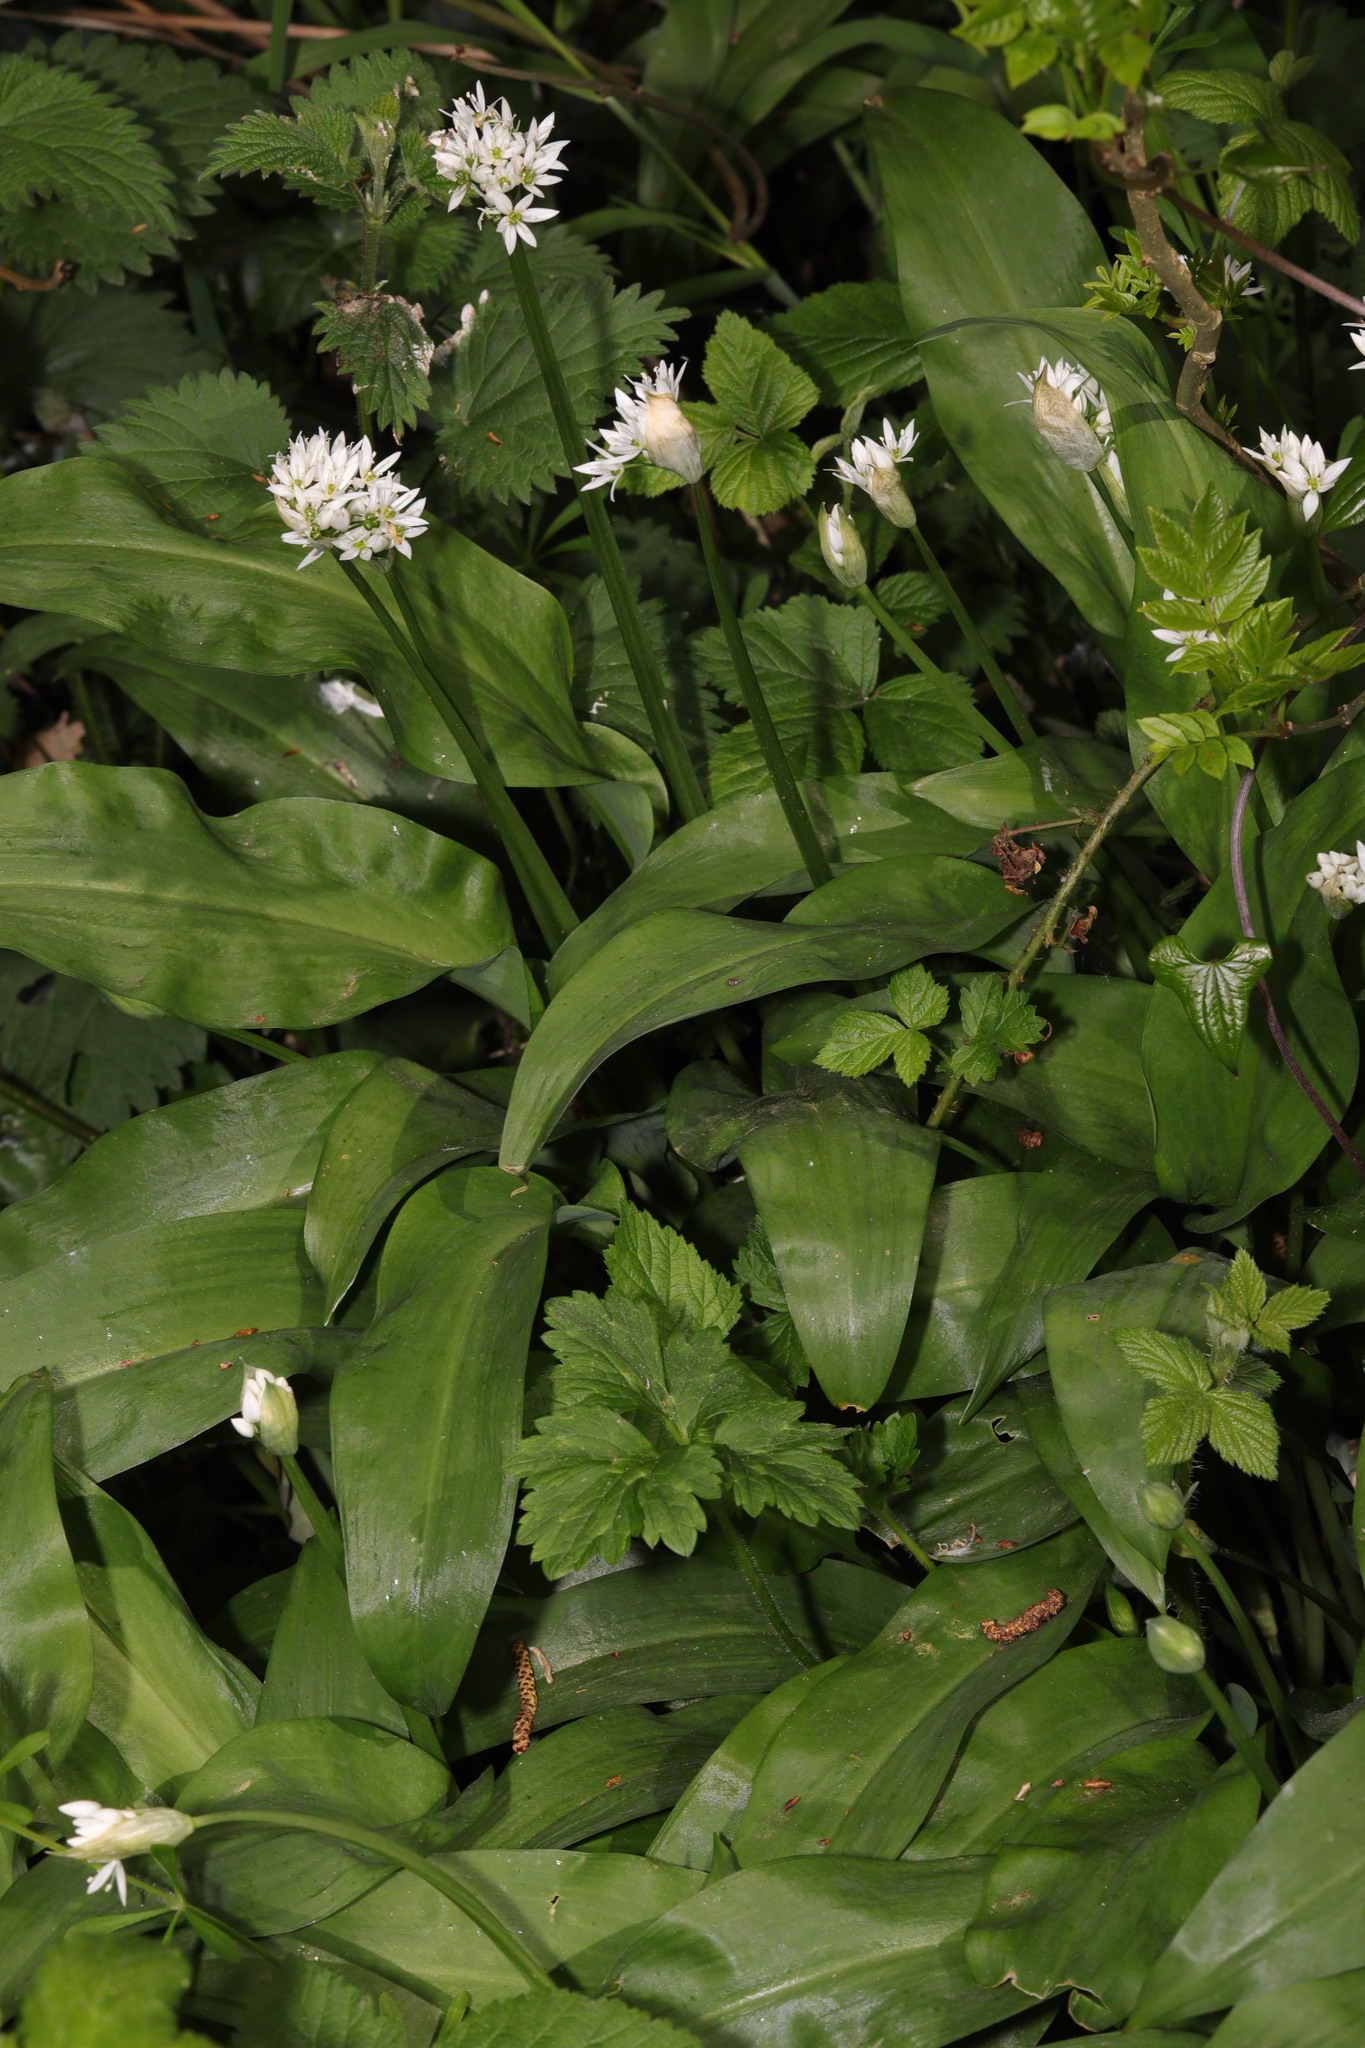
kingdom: Plantae
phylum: Tracheophyta
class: Liliopsida
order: Asparagales
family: Amaryllidaceae
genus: Allium
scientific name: Allium ursinum
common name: Ramsons
